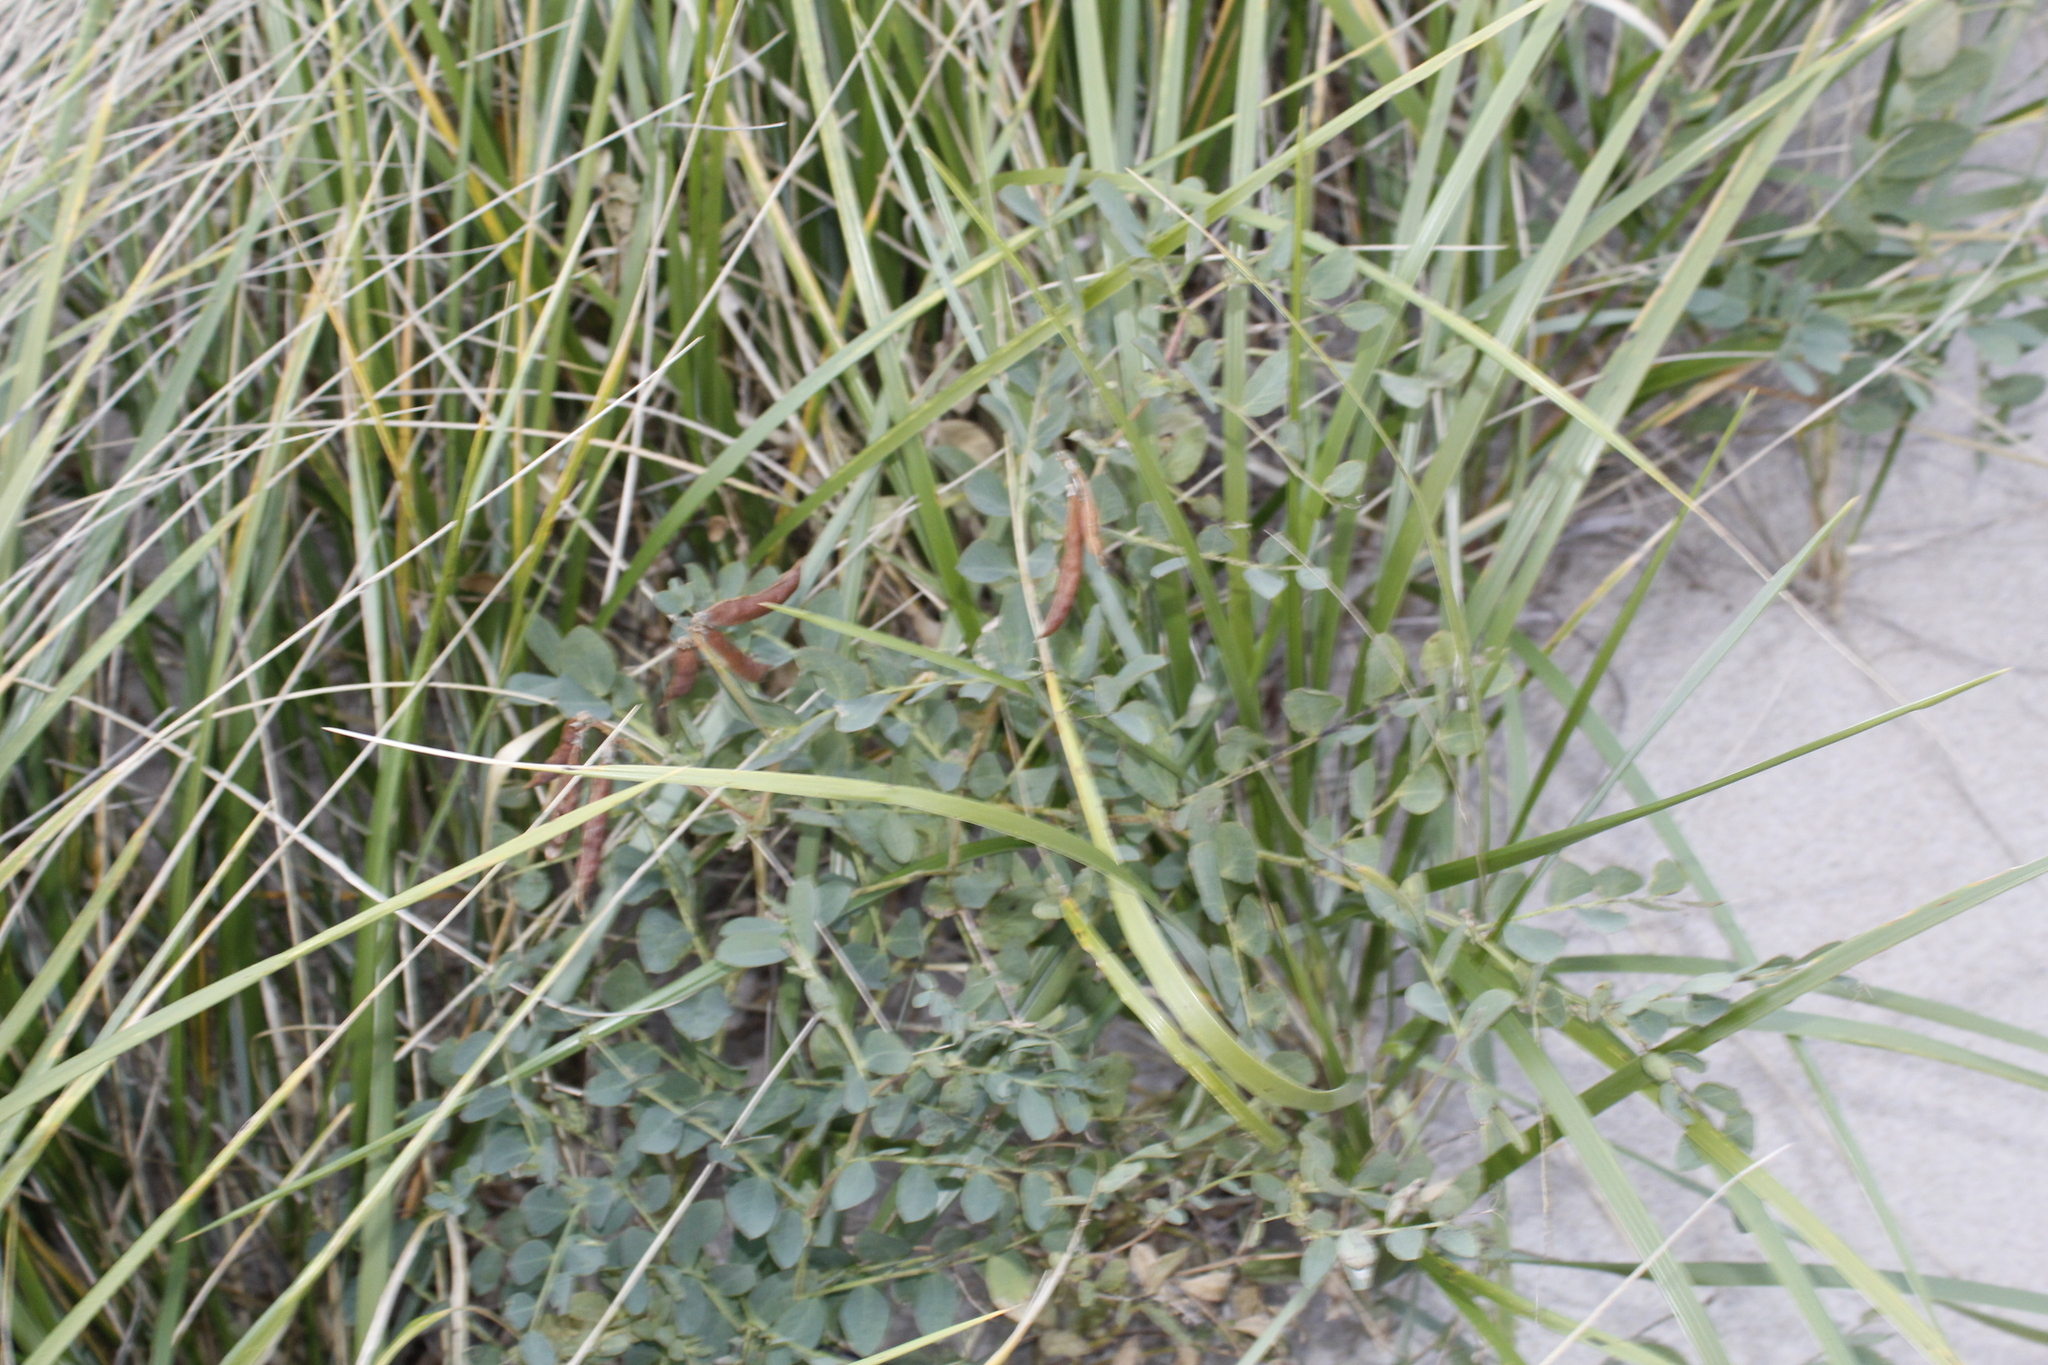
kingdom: Plantae
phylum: Tracheophyta
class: Magnoliopsida
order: Fabales
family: Fabaceae
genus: Lathyrus
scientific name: Lathyrus japonicus
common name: Sea pea
